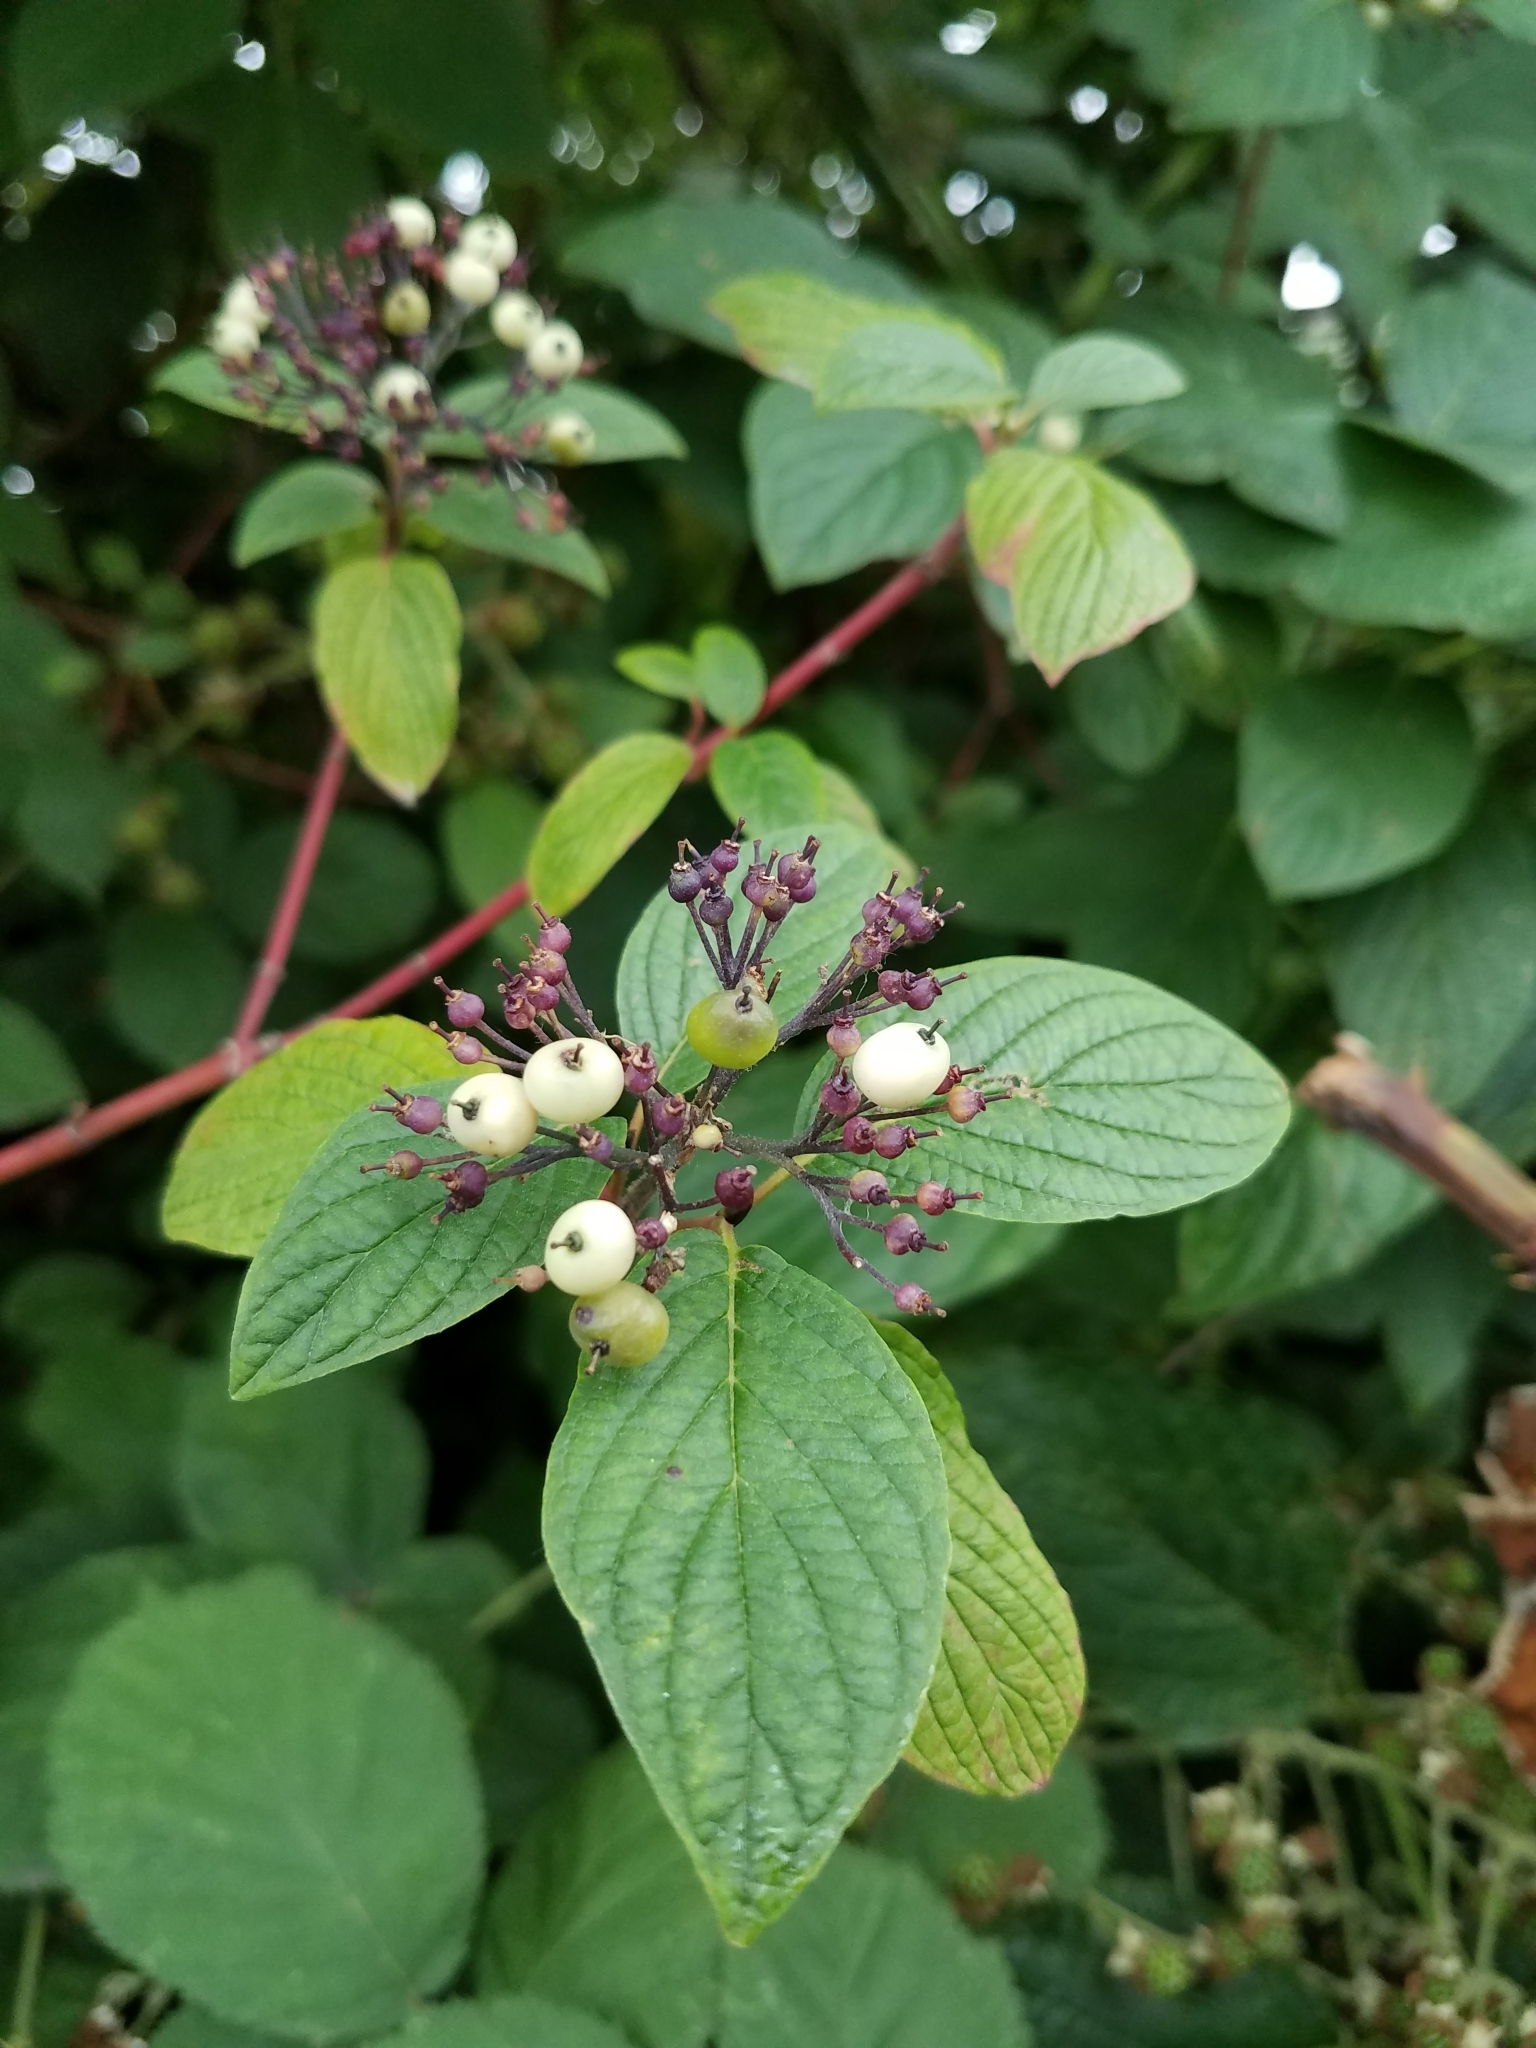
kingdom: Plantae
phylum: Tracheophyta
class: Magnoliopsida
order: Cornales
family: Cornaceae
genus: Cornus
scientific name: Cornus sericea
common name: Red-osier dogwood
